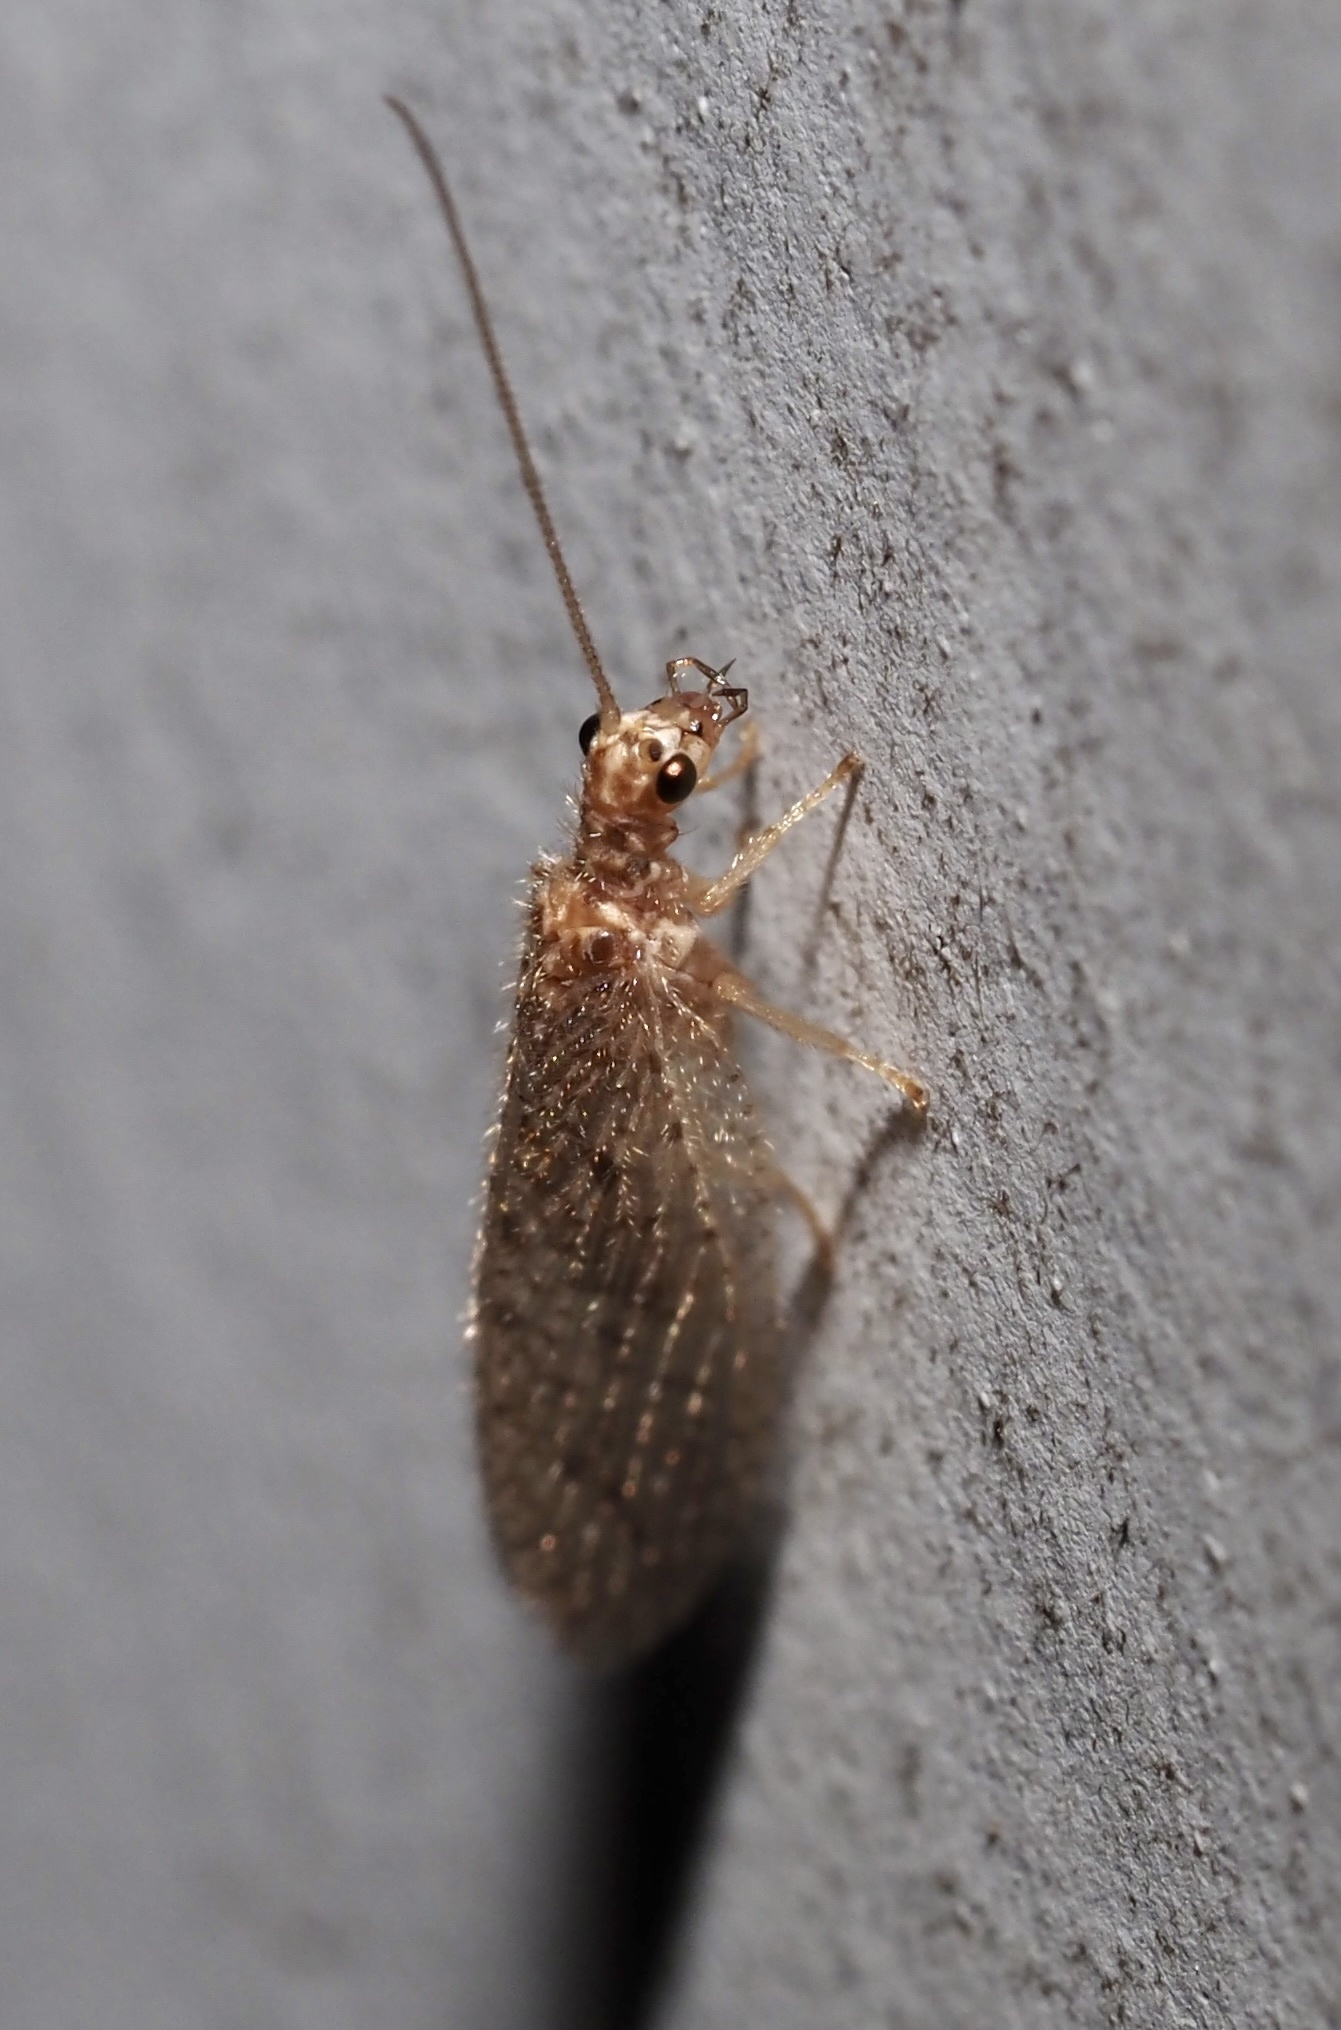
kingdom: Animalia
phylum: Arthropoda
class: Insecta
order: Neuroptera
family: Hemerobiidae
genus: Micromus
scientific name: Micromus subanticus
